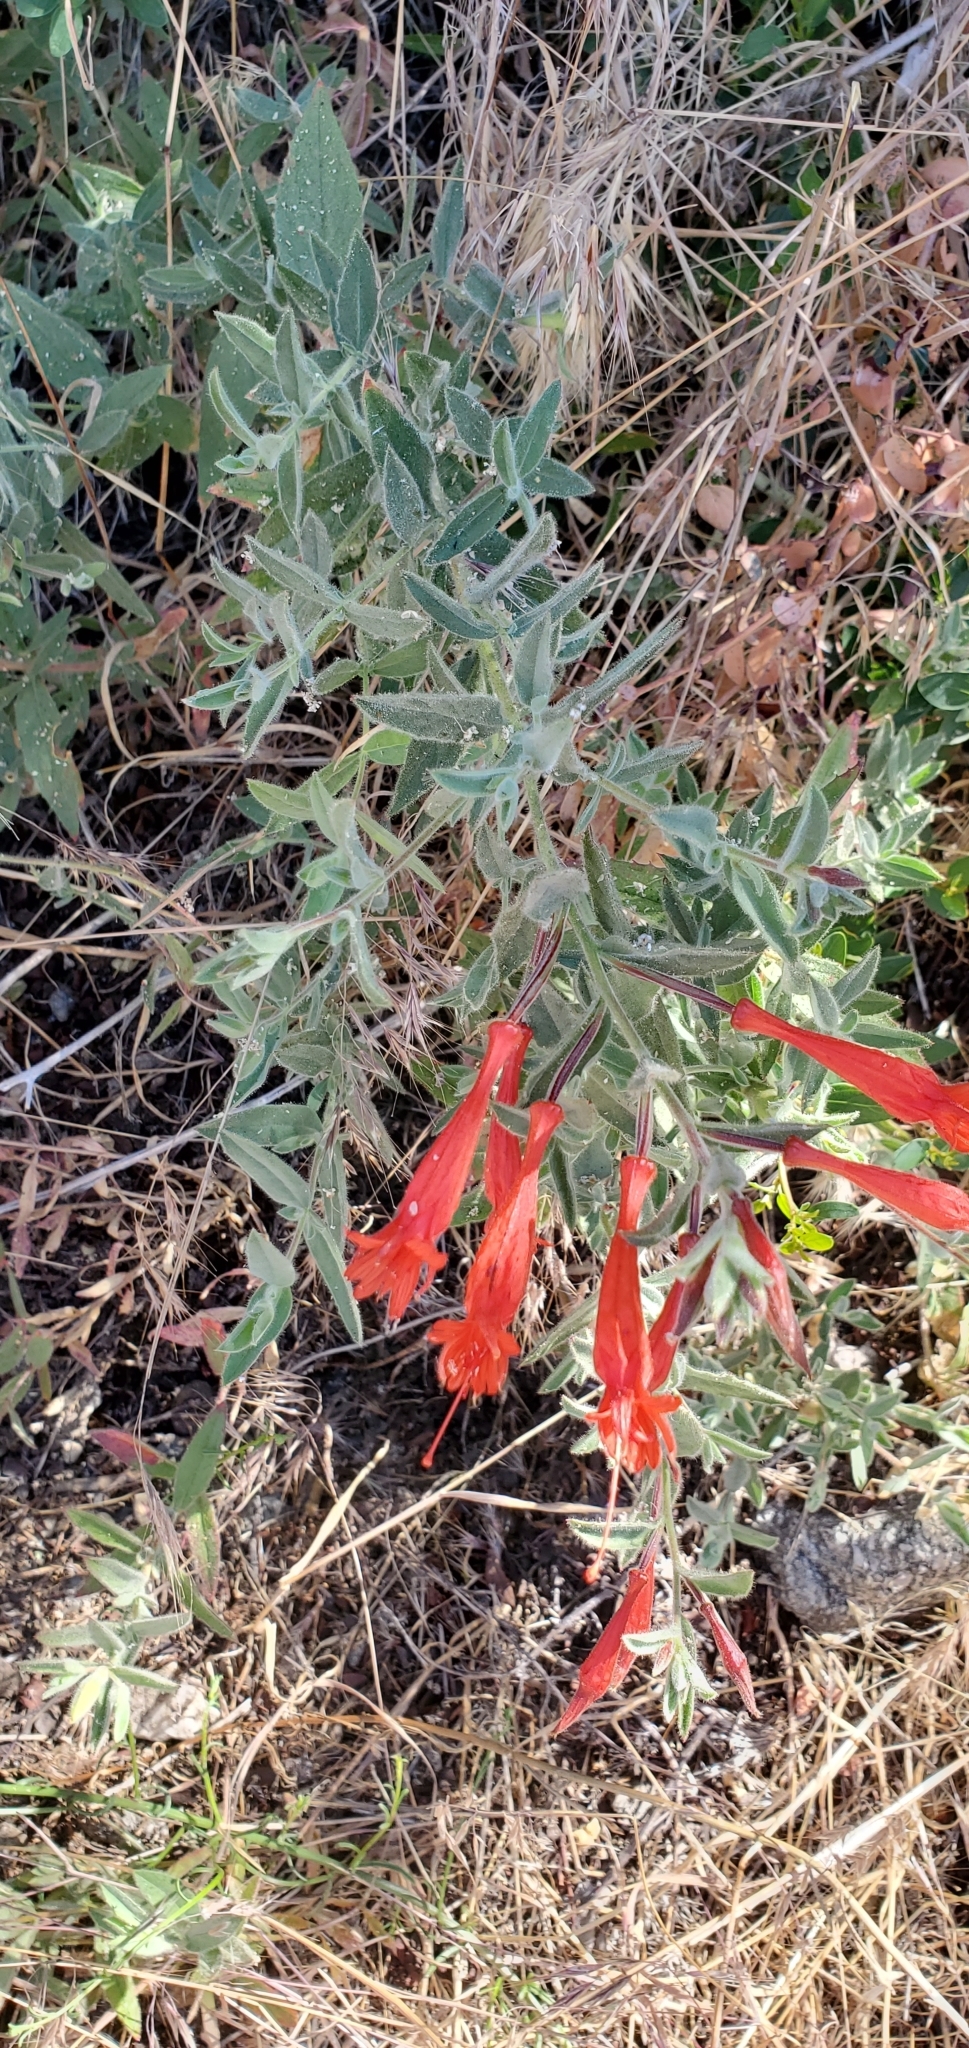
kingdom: Plantae
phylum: Tracheophyta
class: Magnoliopsida
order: Myrtales
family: Onagraceae
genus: Epilobium
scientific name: Epilobium canum
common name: California-fuchsia
